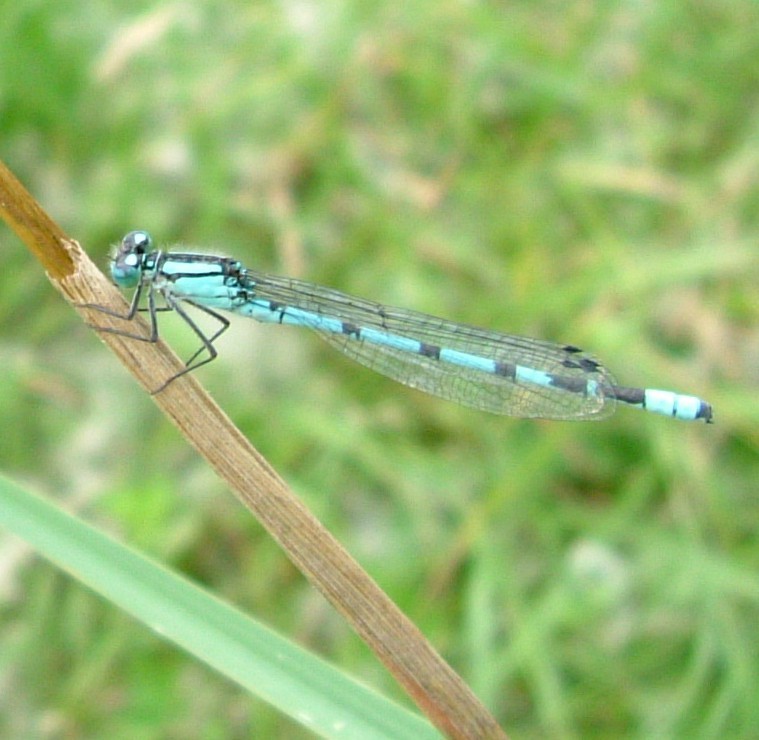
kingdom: Animalia
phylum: Arthropoda
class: Insecta
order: Odonata
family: Coenagrionidae
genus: Enallagma
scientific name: Enallagma cyathigerum
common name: Common blue damselfly
